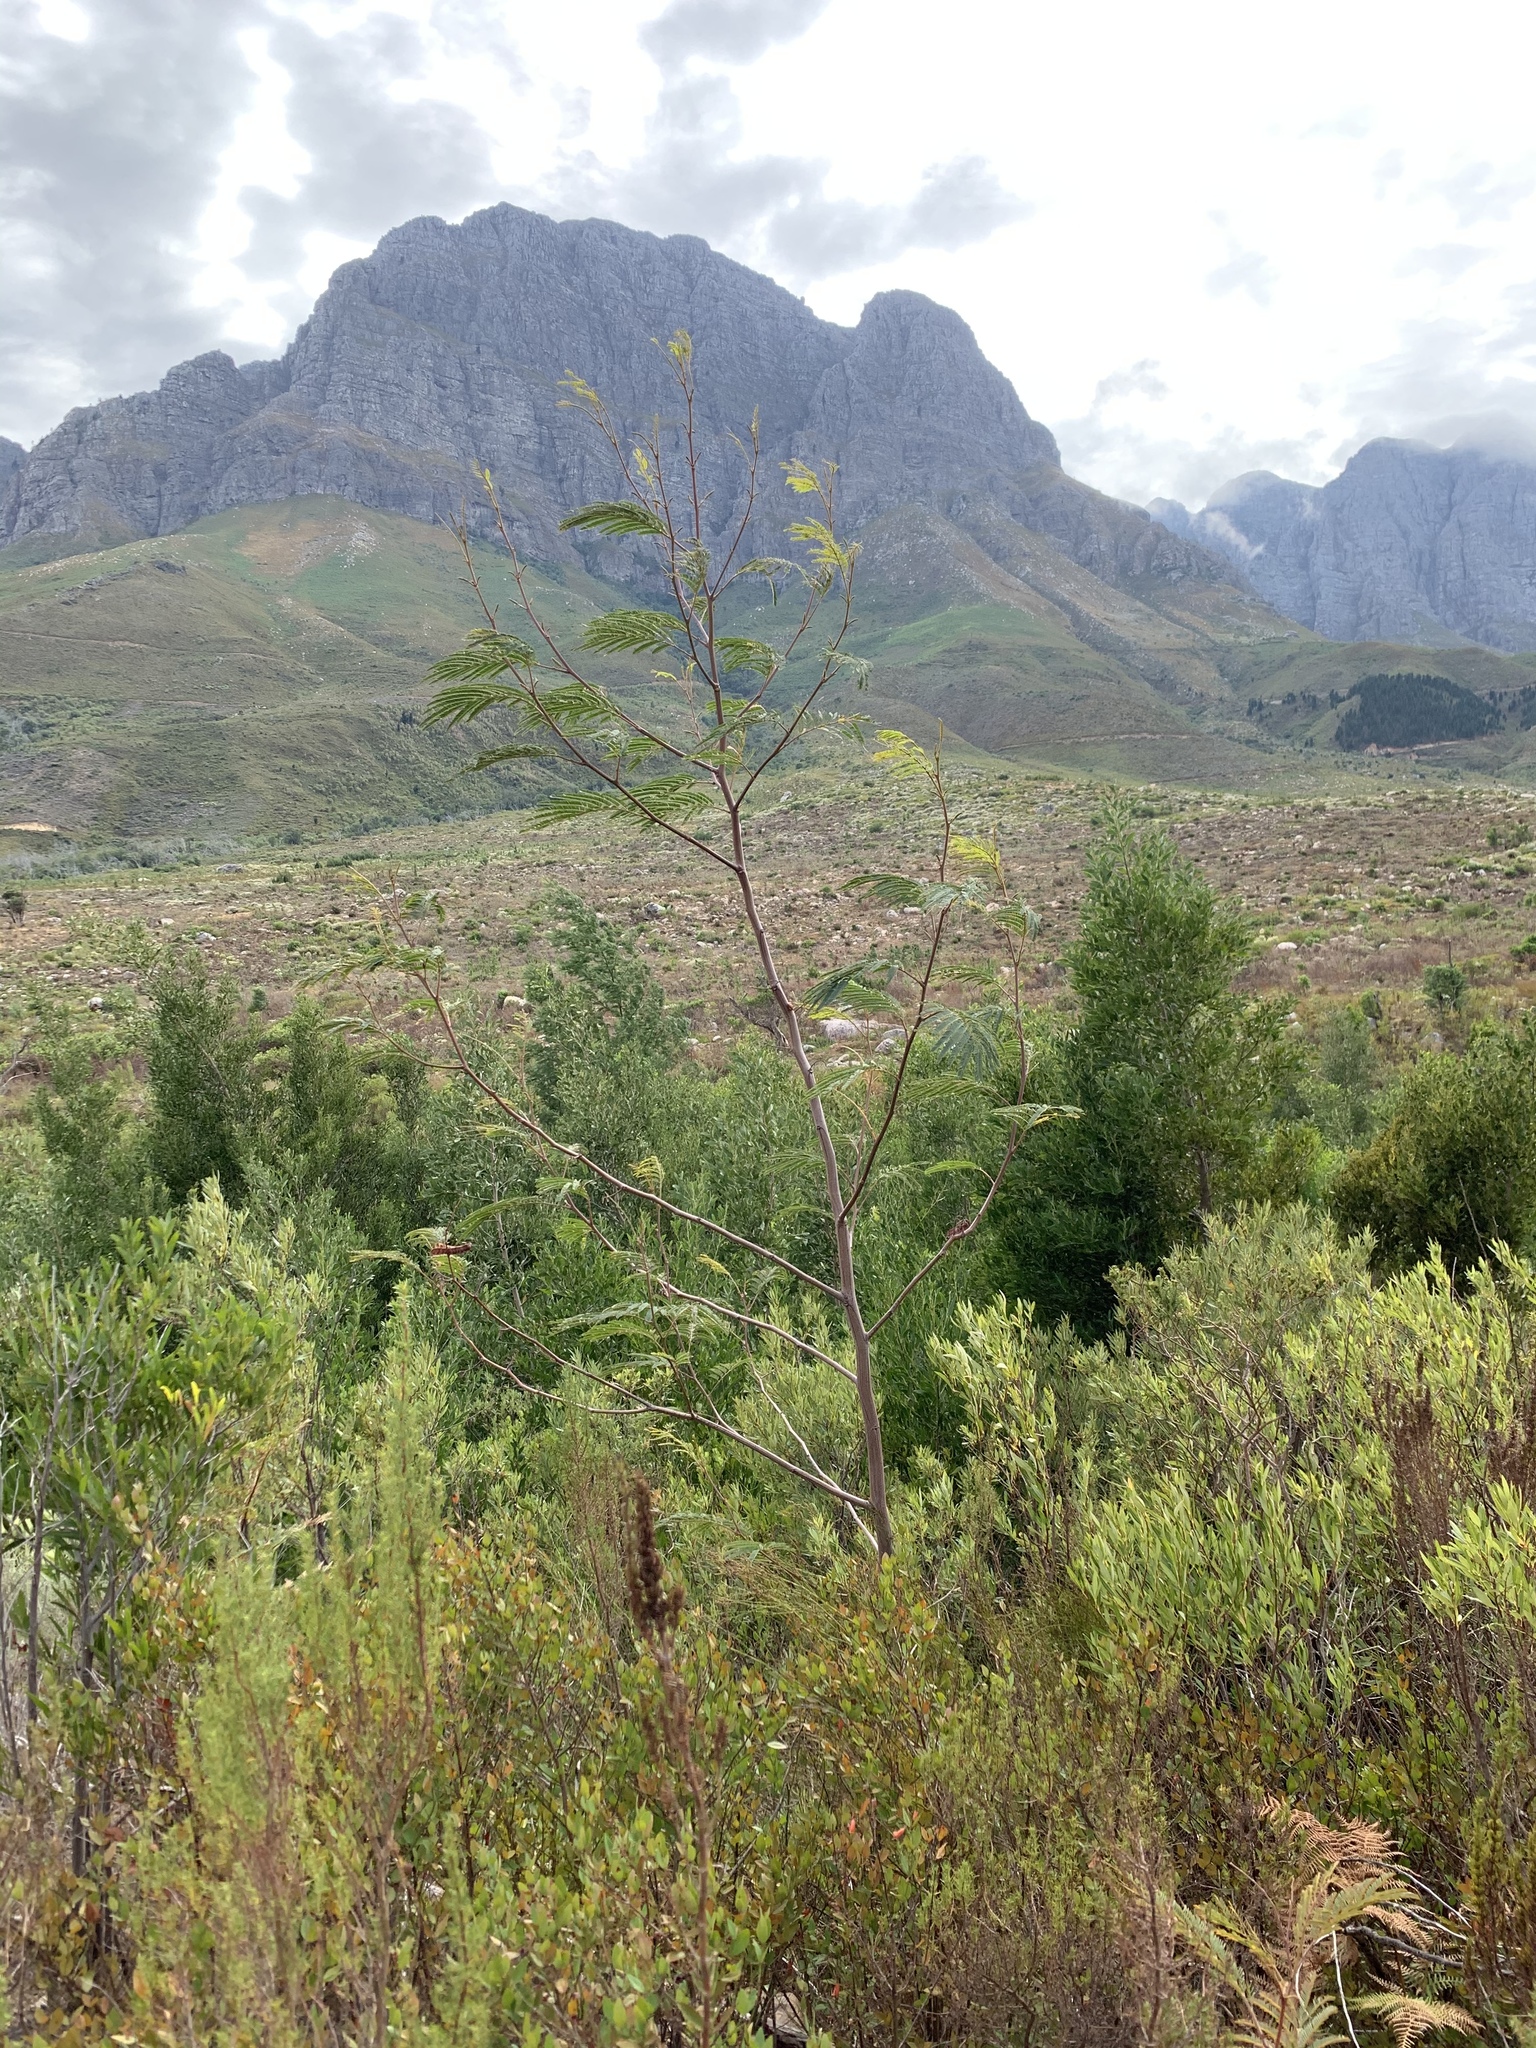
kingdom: Plantae
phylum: Tracheophyta
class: Magnoliopsida
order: Fabales
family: Fabaceae
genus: Paraserianthes
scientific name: Paraserianthes lophantha
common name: Plume albizia
